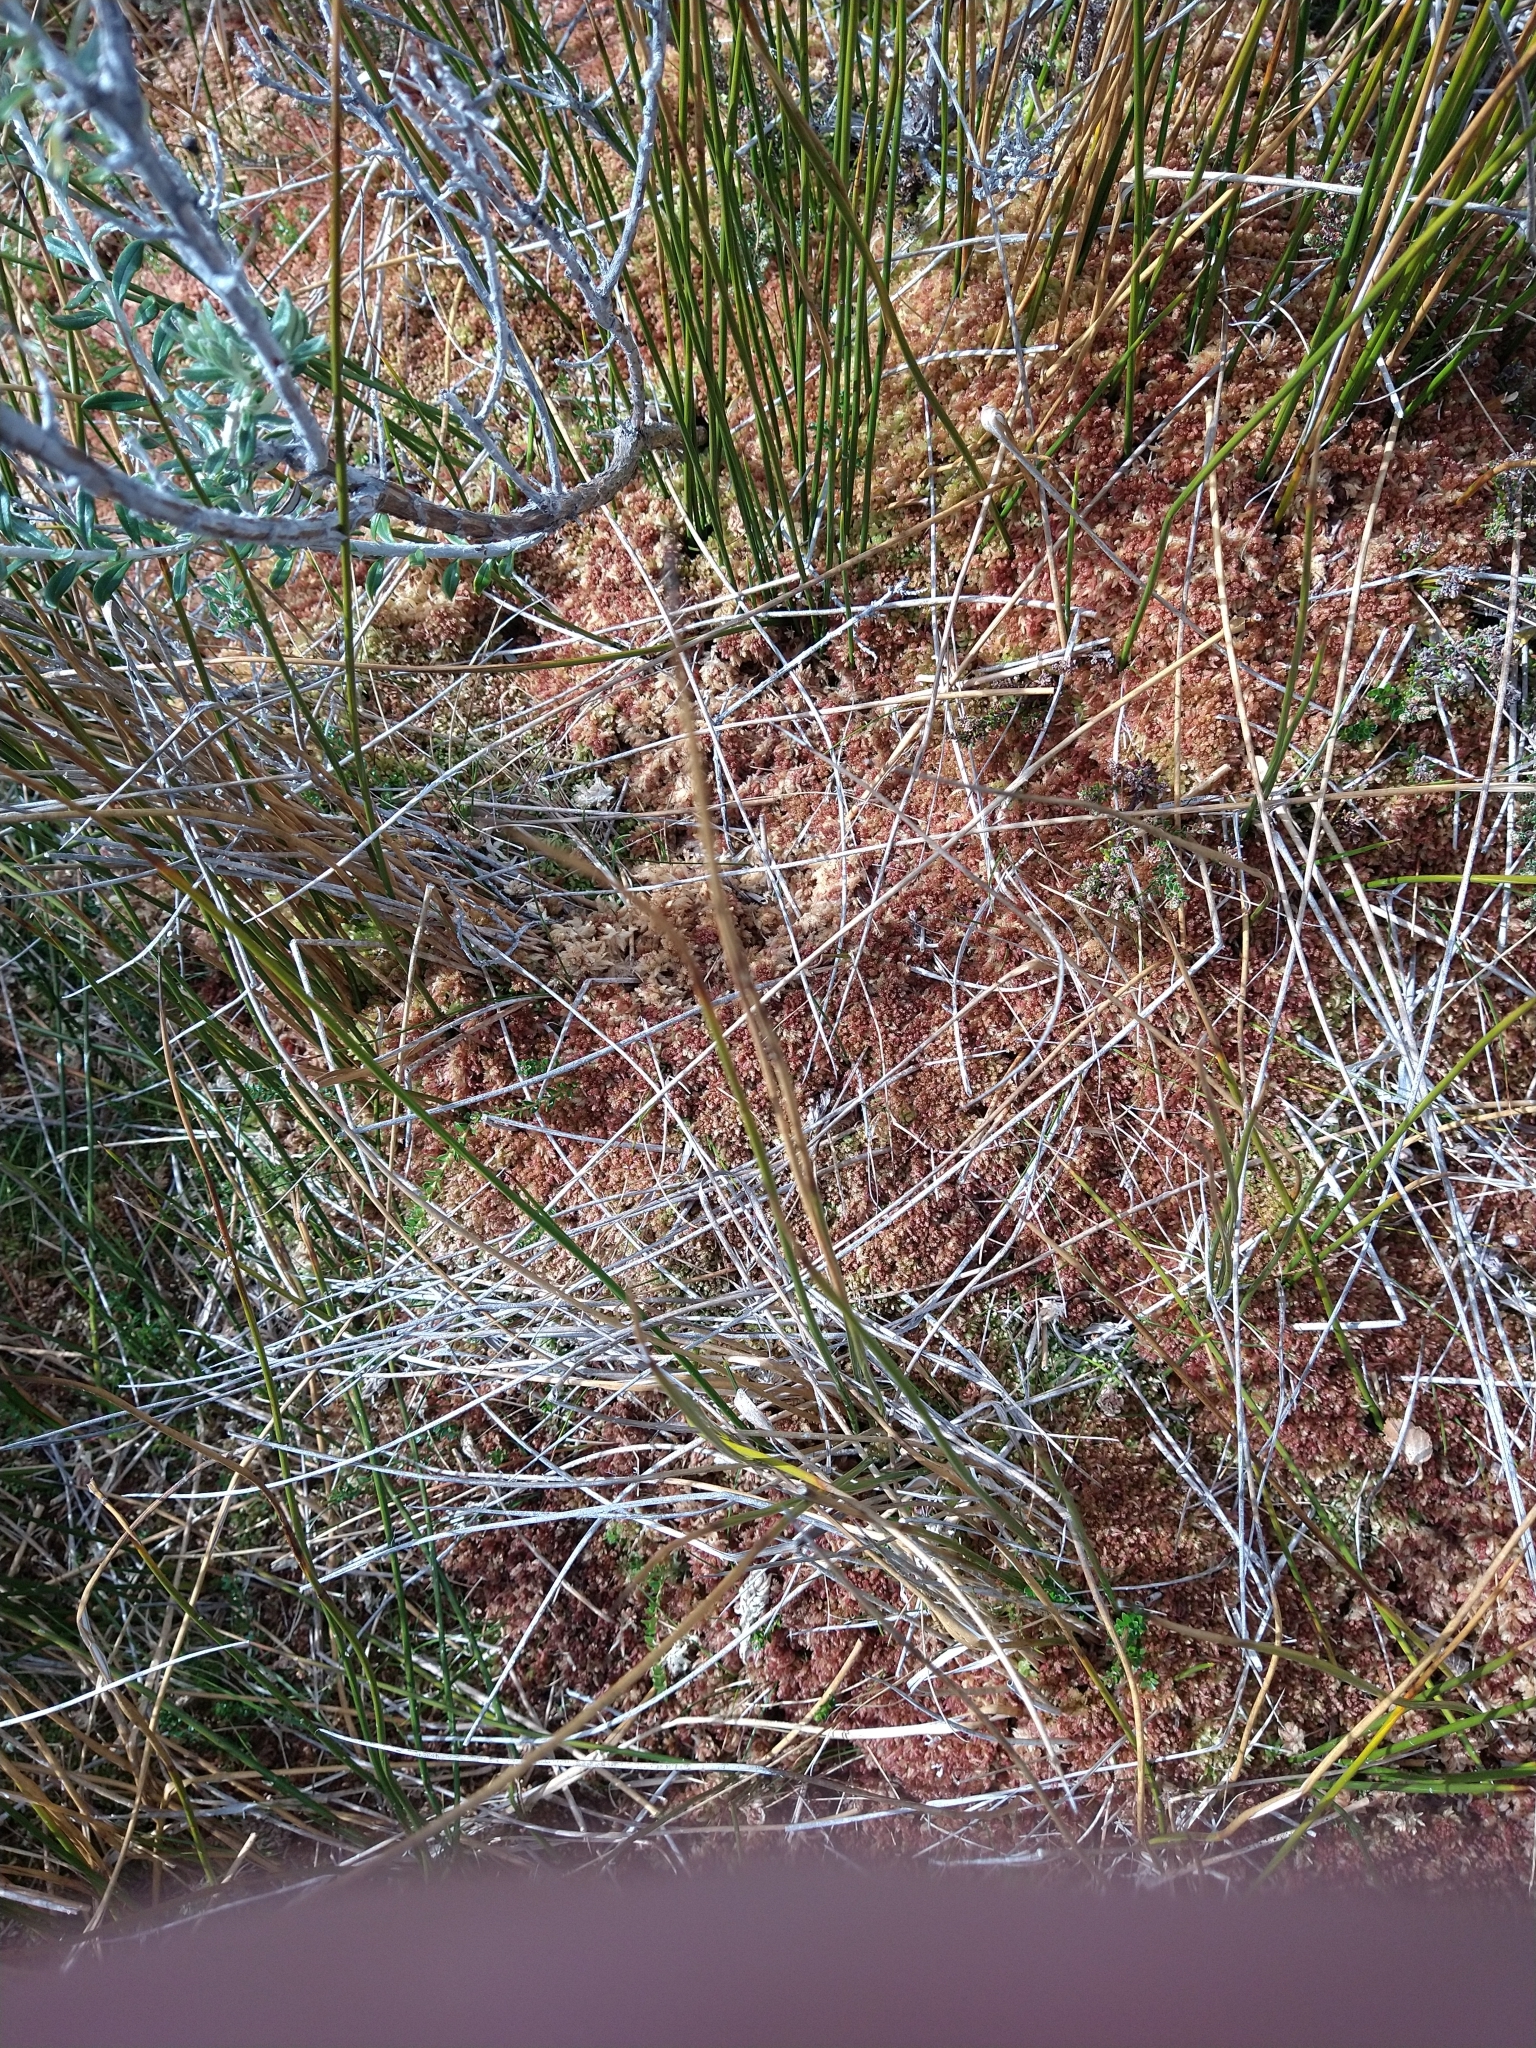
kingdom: Plantae
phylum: Bryophyta
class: Sphagnopsida
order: Sphagnales
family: Sphagnaceae
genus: Sphagnum
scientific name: Sphagnum magellanicum
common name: Magellan's peat moss
